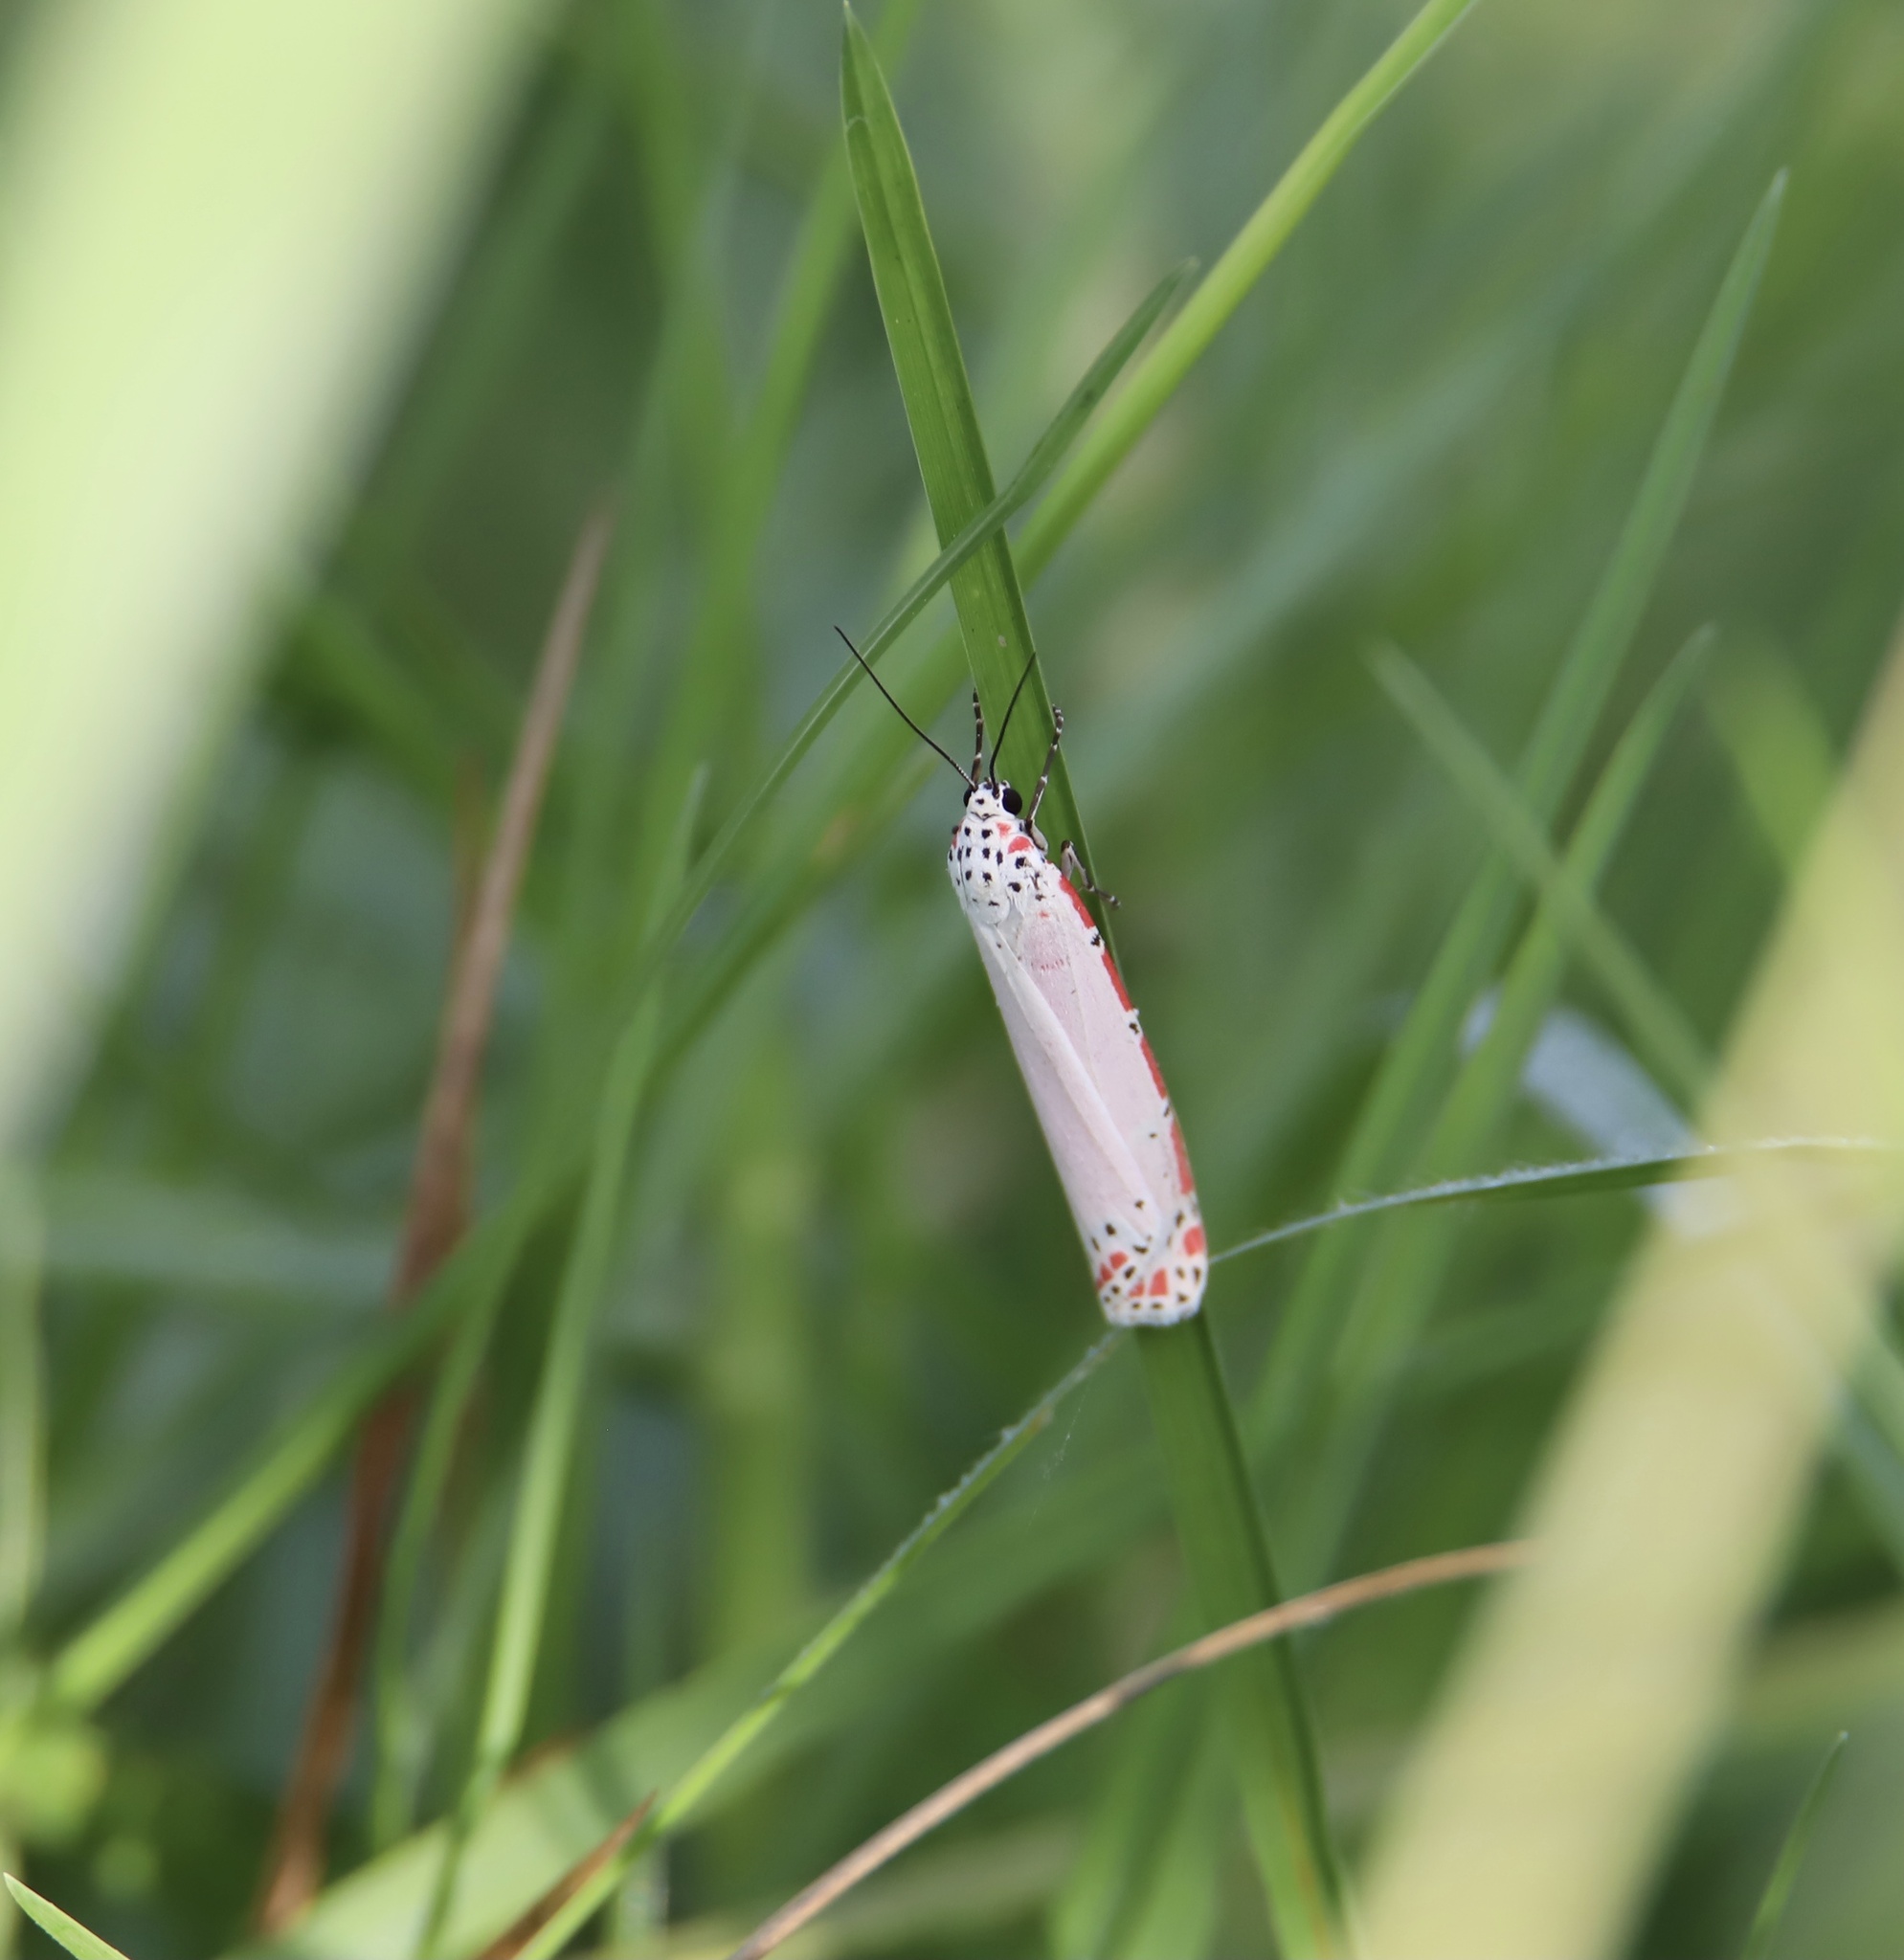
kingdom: Animalia
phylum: Arthropoda
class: Insecta
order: Lepidoptera
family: Erebidae
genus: Utetheisa
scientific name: Utetheisa ornatrix
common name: Beautiful utetheisa
